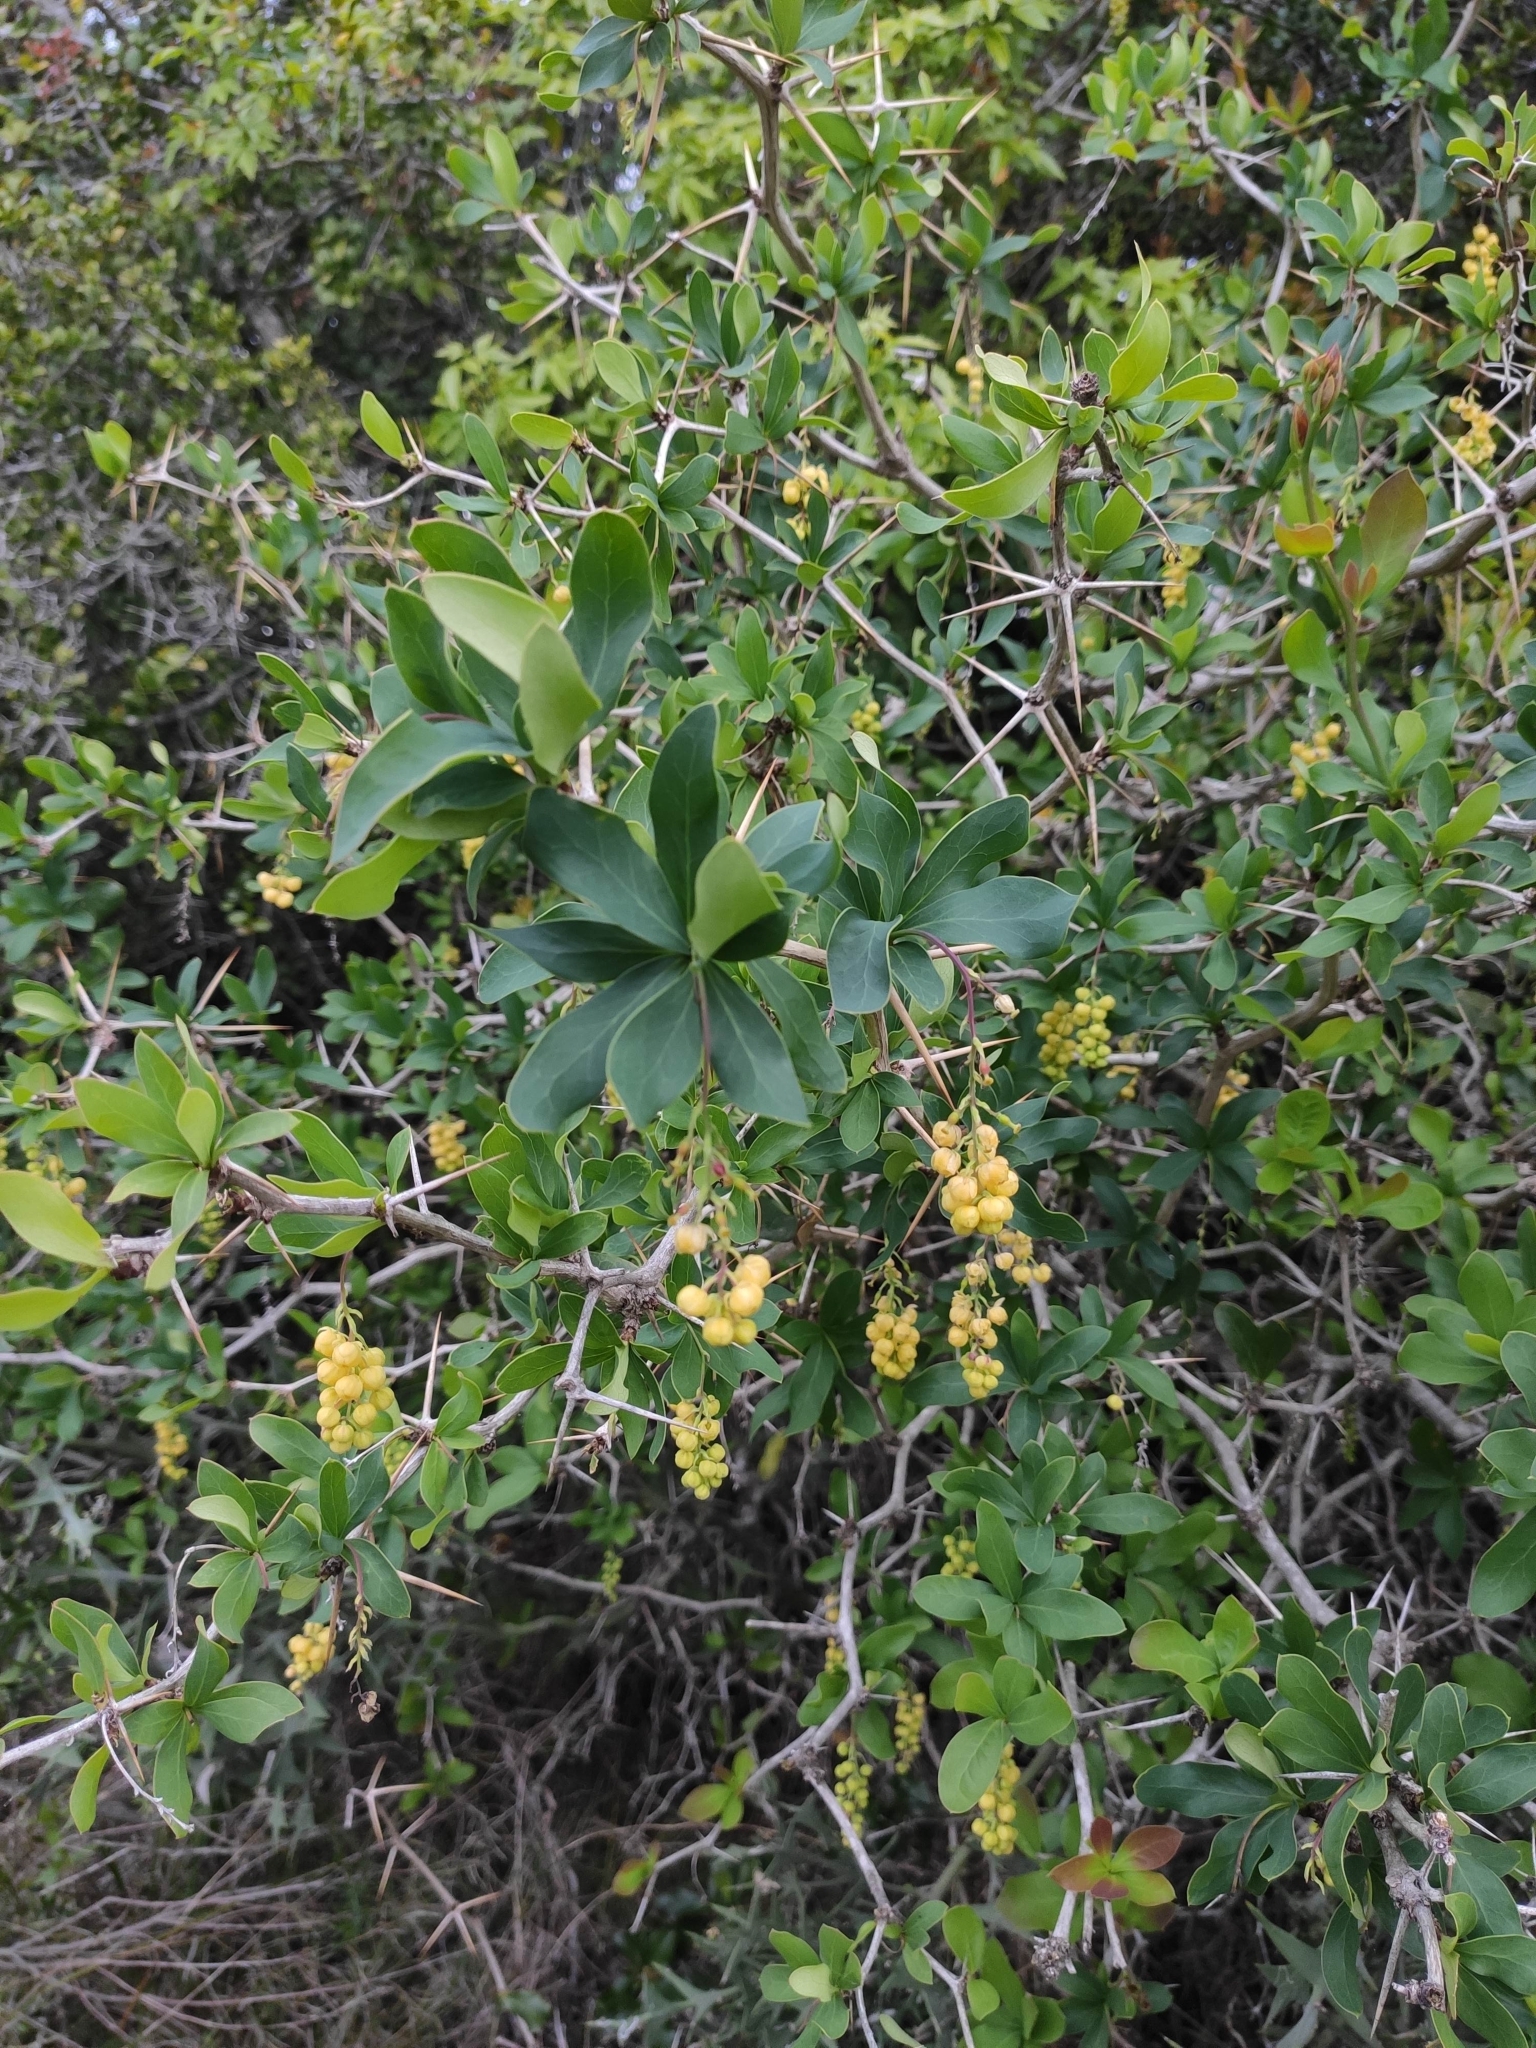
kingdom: Plantae
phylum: Tracheophyta
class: Magnoliopsida
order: Ranunculales
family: Berberidaceae
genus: Berberis
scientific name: Berberis laurina
